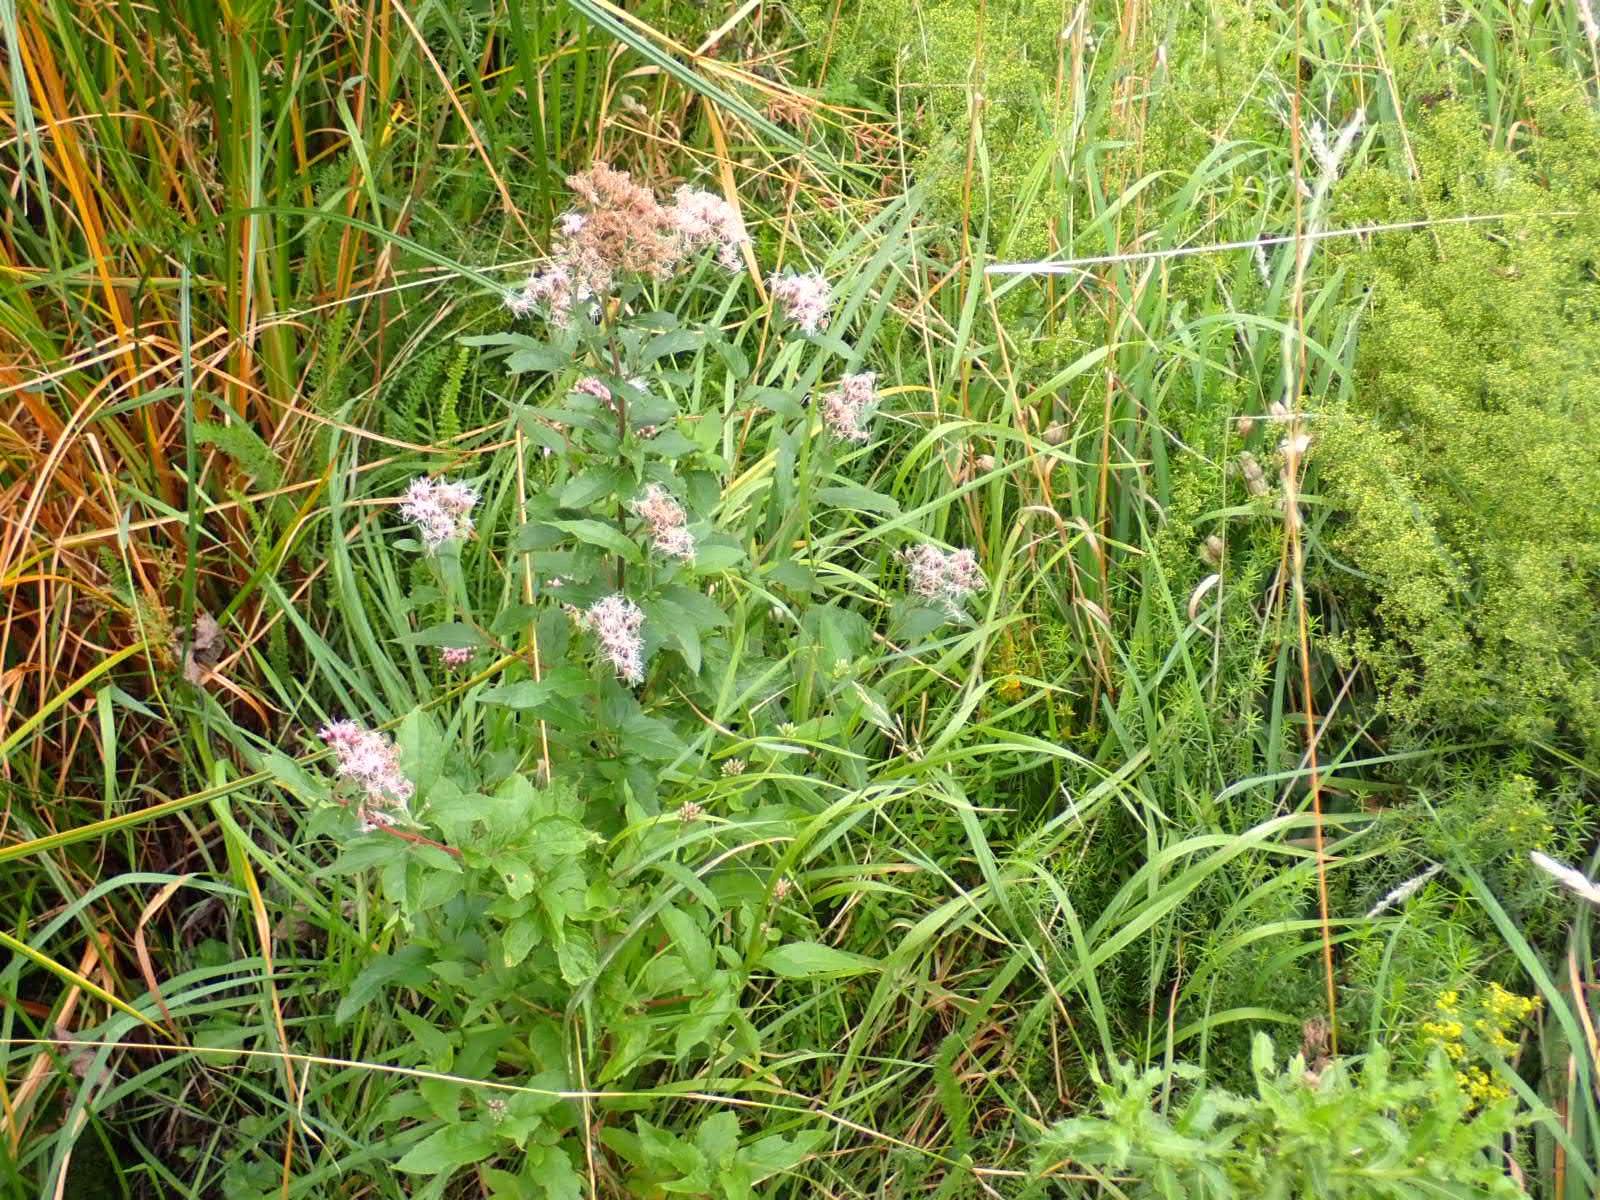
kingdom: Plantae
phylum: Tracheophyta
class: Magnoliopsida
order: Asterales
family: Asteraceae
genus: Eupatorium
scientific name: Eupatorium cannabinum
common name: Hemp-agrimony
